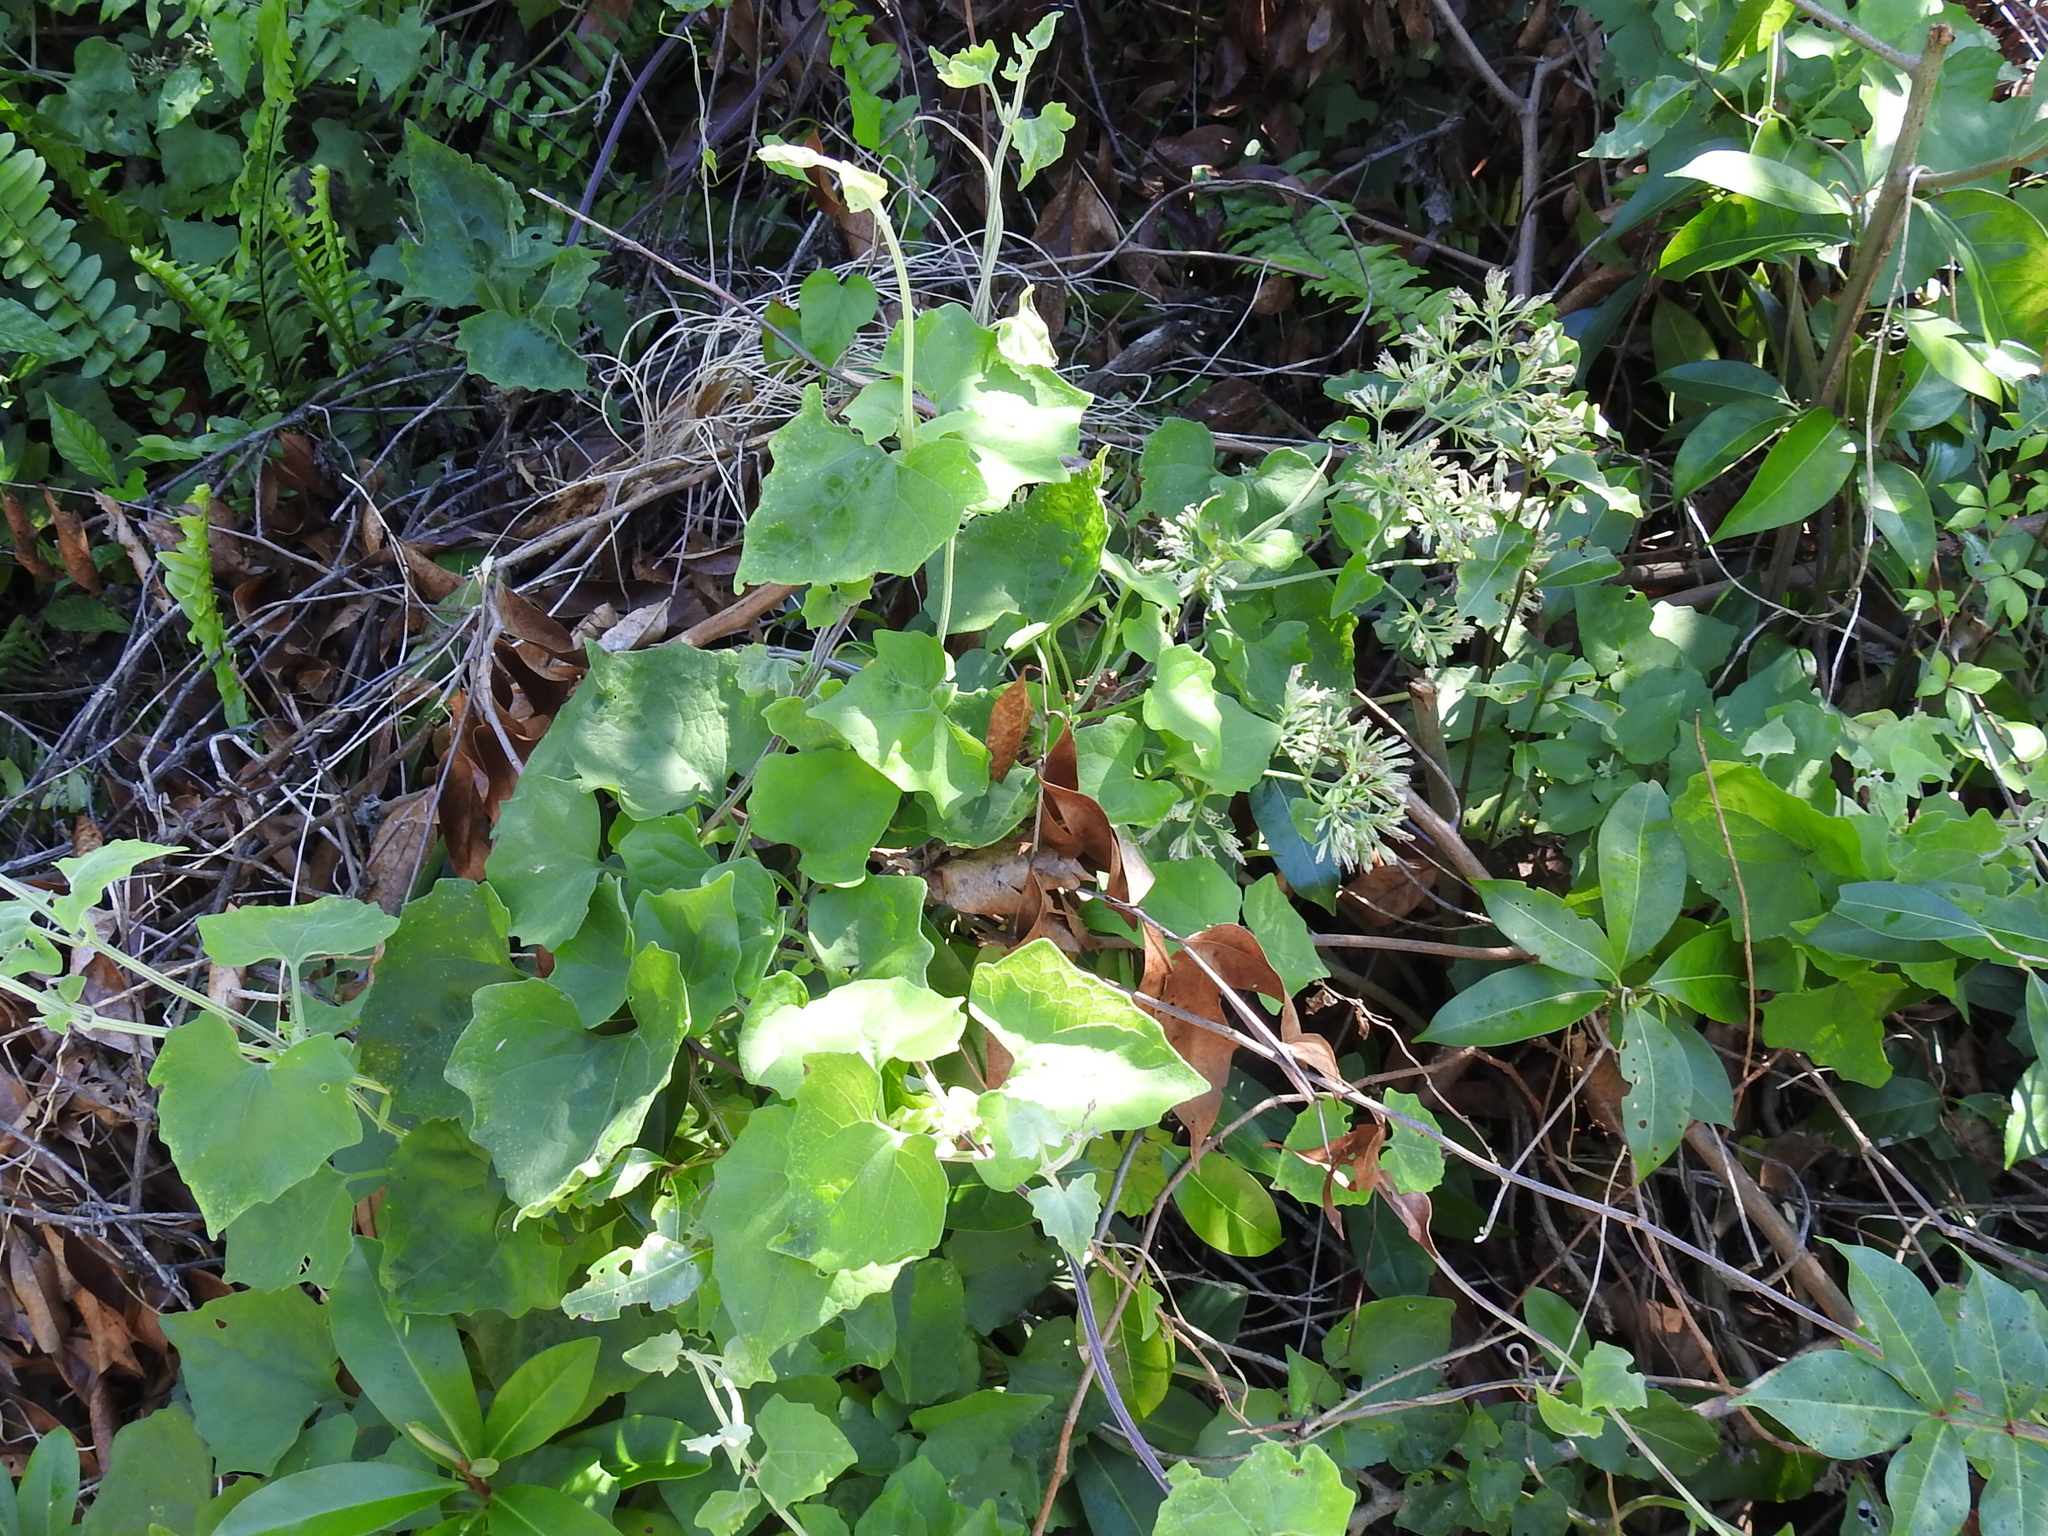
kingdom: Plantae
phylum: Tracheophyta
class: Magnoliopsida
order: Asterales
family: Asteraceae
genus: Mikania
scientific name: Mikania cordifolia
